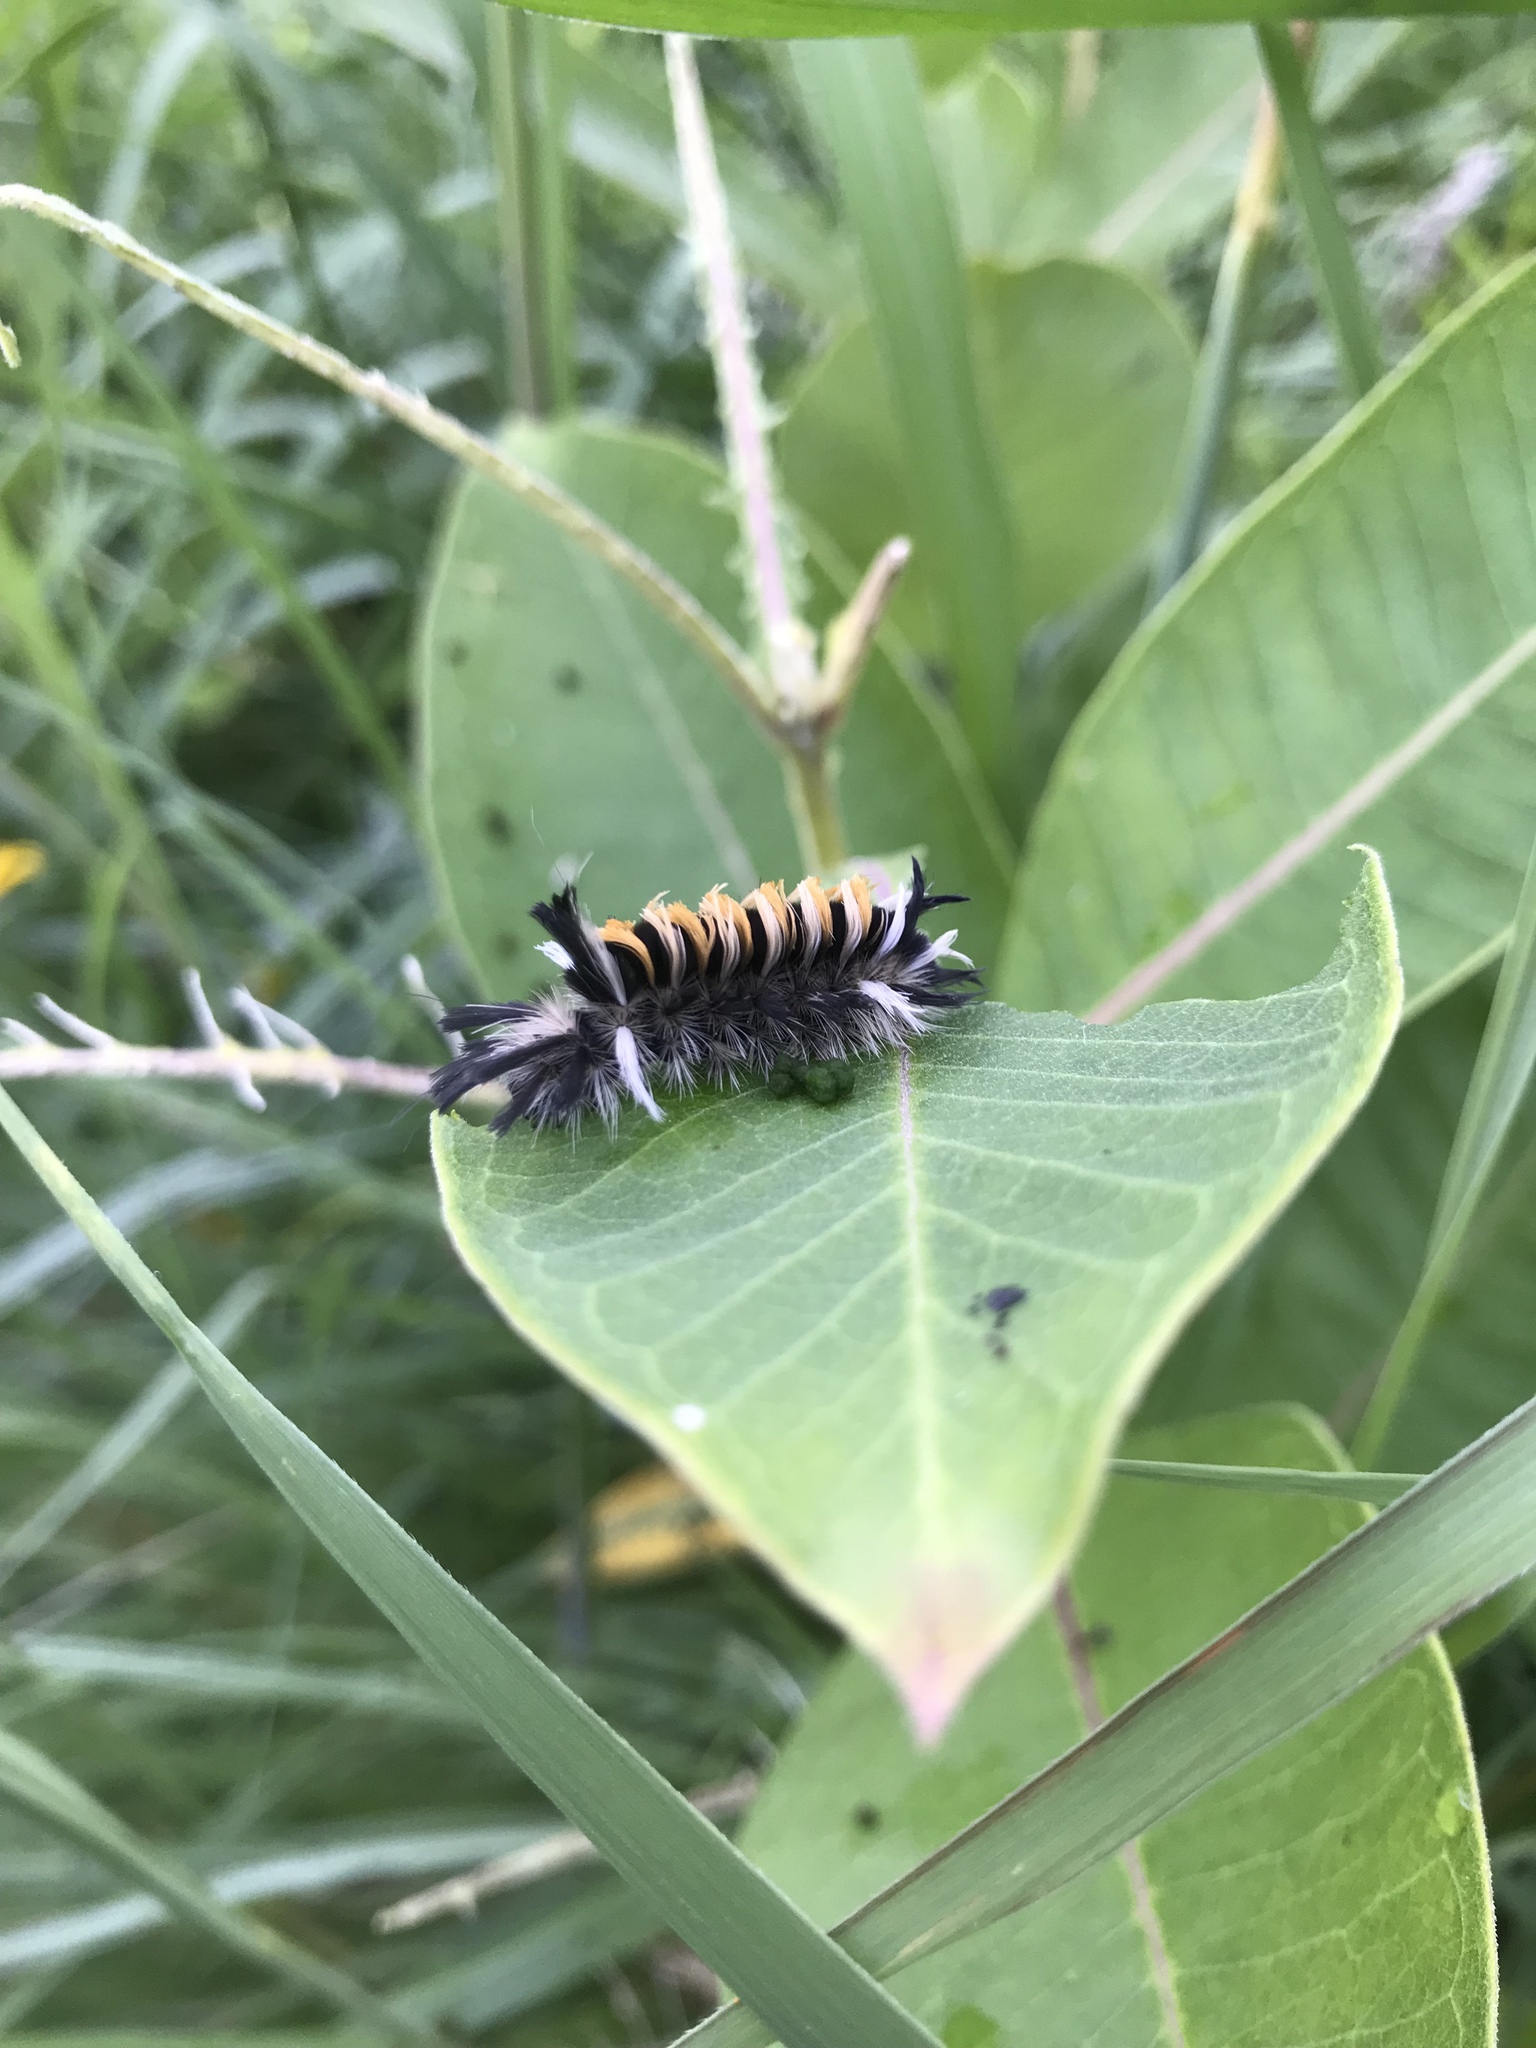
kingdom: Animalia
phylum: Arthropoda
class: Insecta
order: Lepidoptera
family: Erebidae
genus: Euchaetes
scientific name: Euchaetes egle
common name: Milkweed tussock moth
